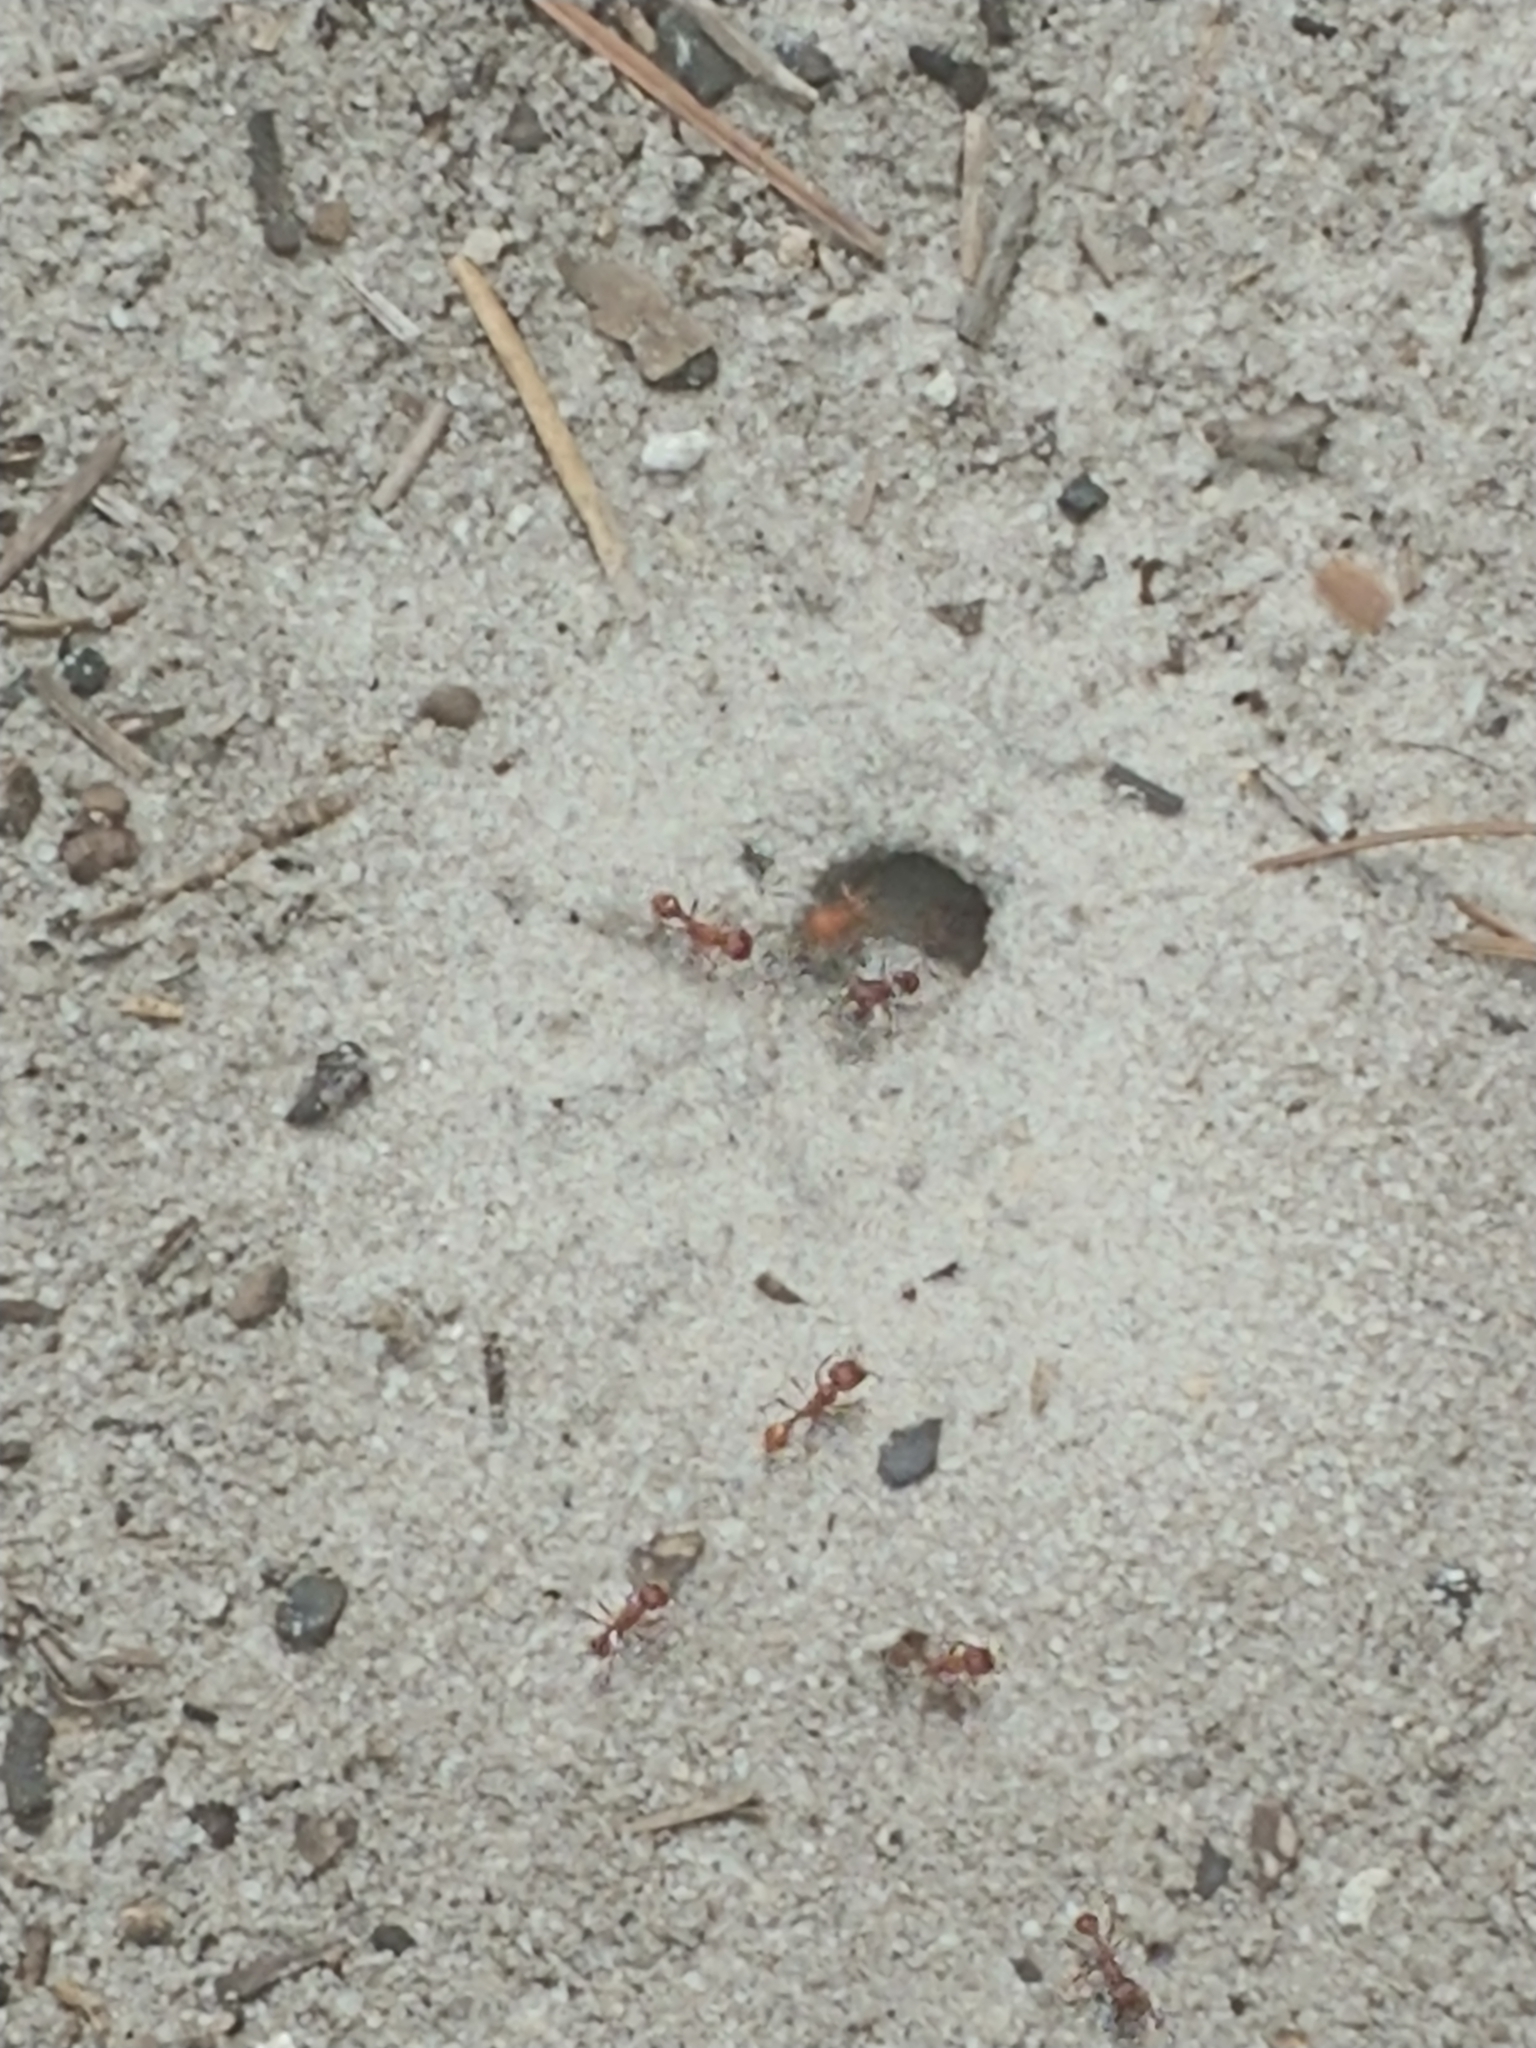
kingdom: Animalia
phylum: Arthropoda
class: Insecta
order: Hymenoptera
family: Formicidae
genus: Pogonomyrmex
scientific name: Pogonomyrmex badius
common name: Florida harvester ant
